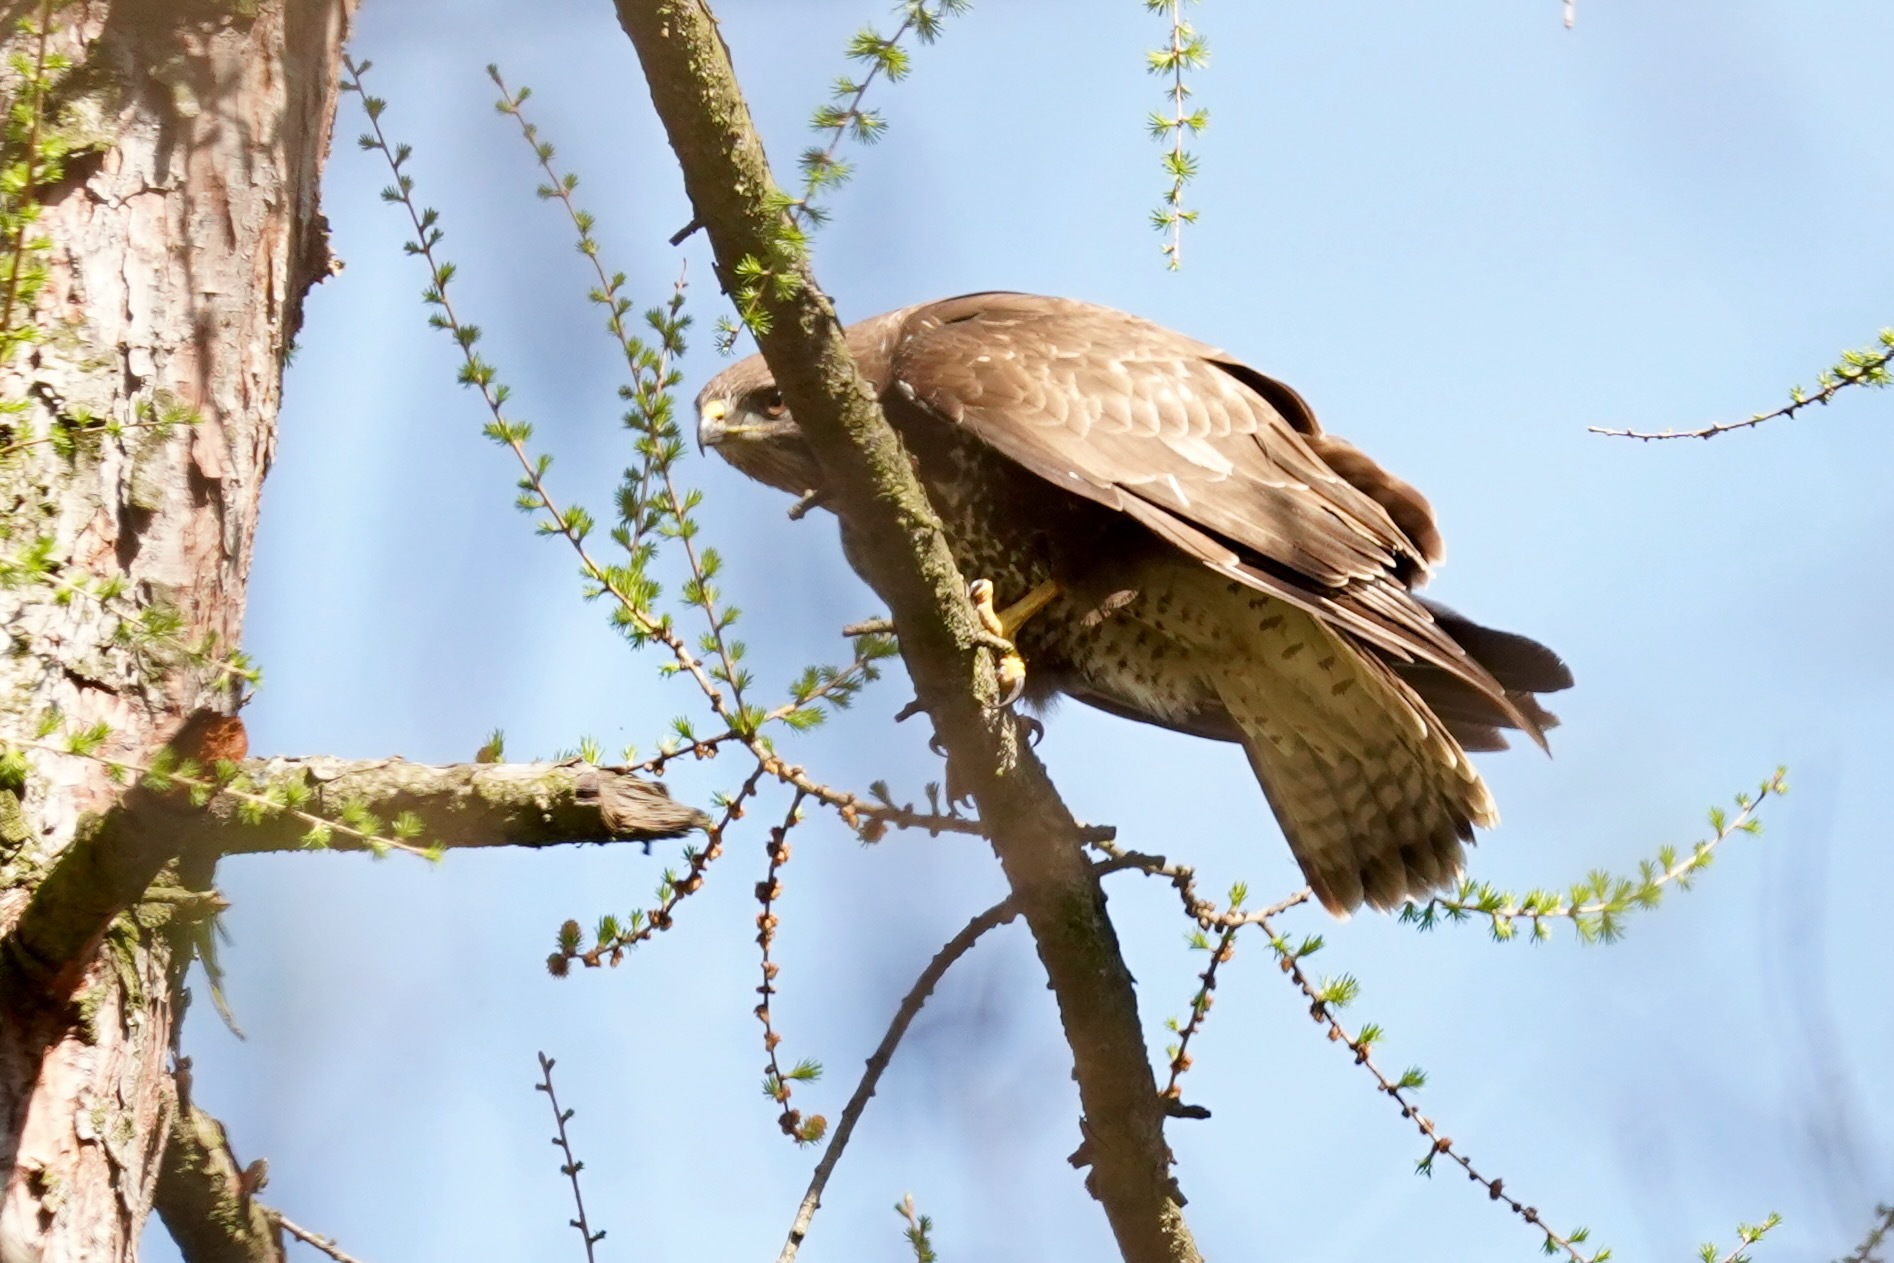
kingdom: Animalia
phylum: Chordata
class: Aves
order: Accipitriformes
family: Accipitridae
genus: Buteo
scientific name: Buteo buteo
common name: Common buzzard
